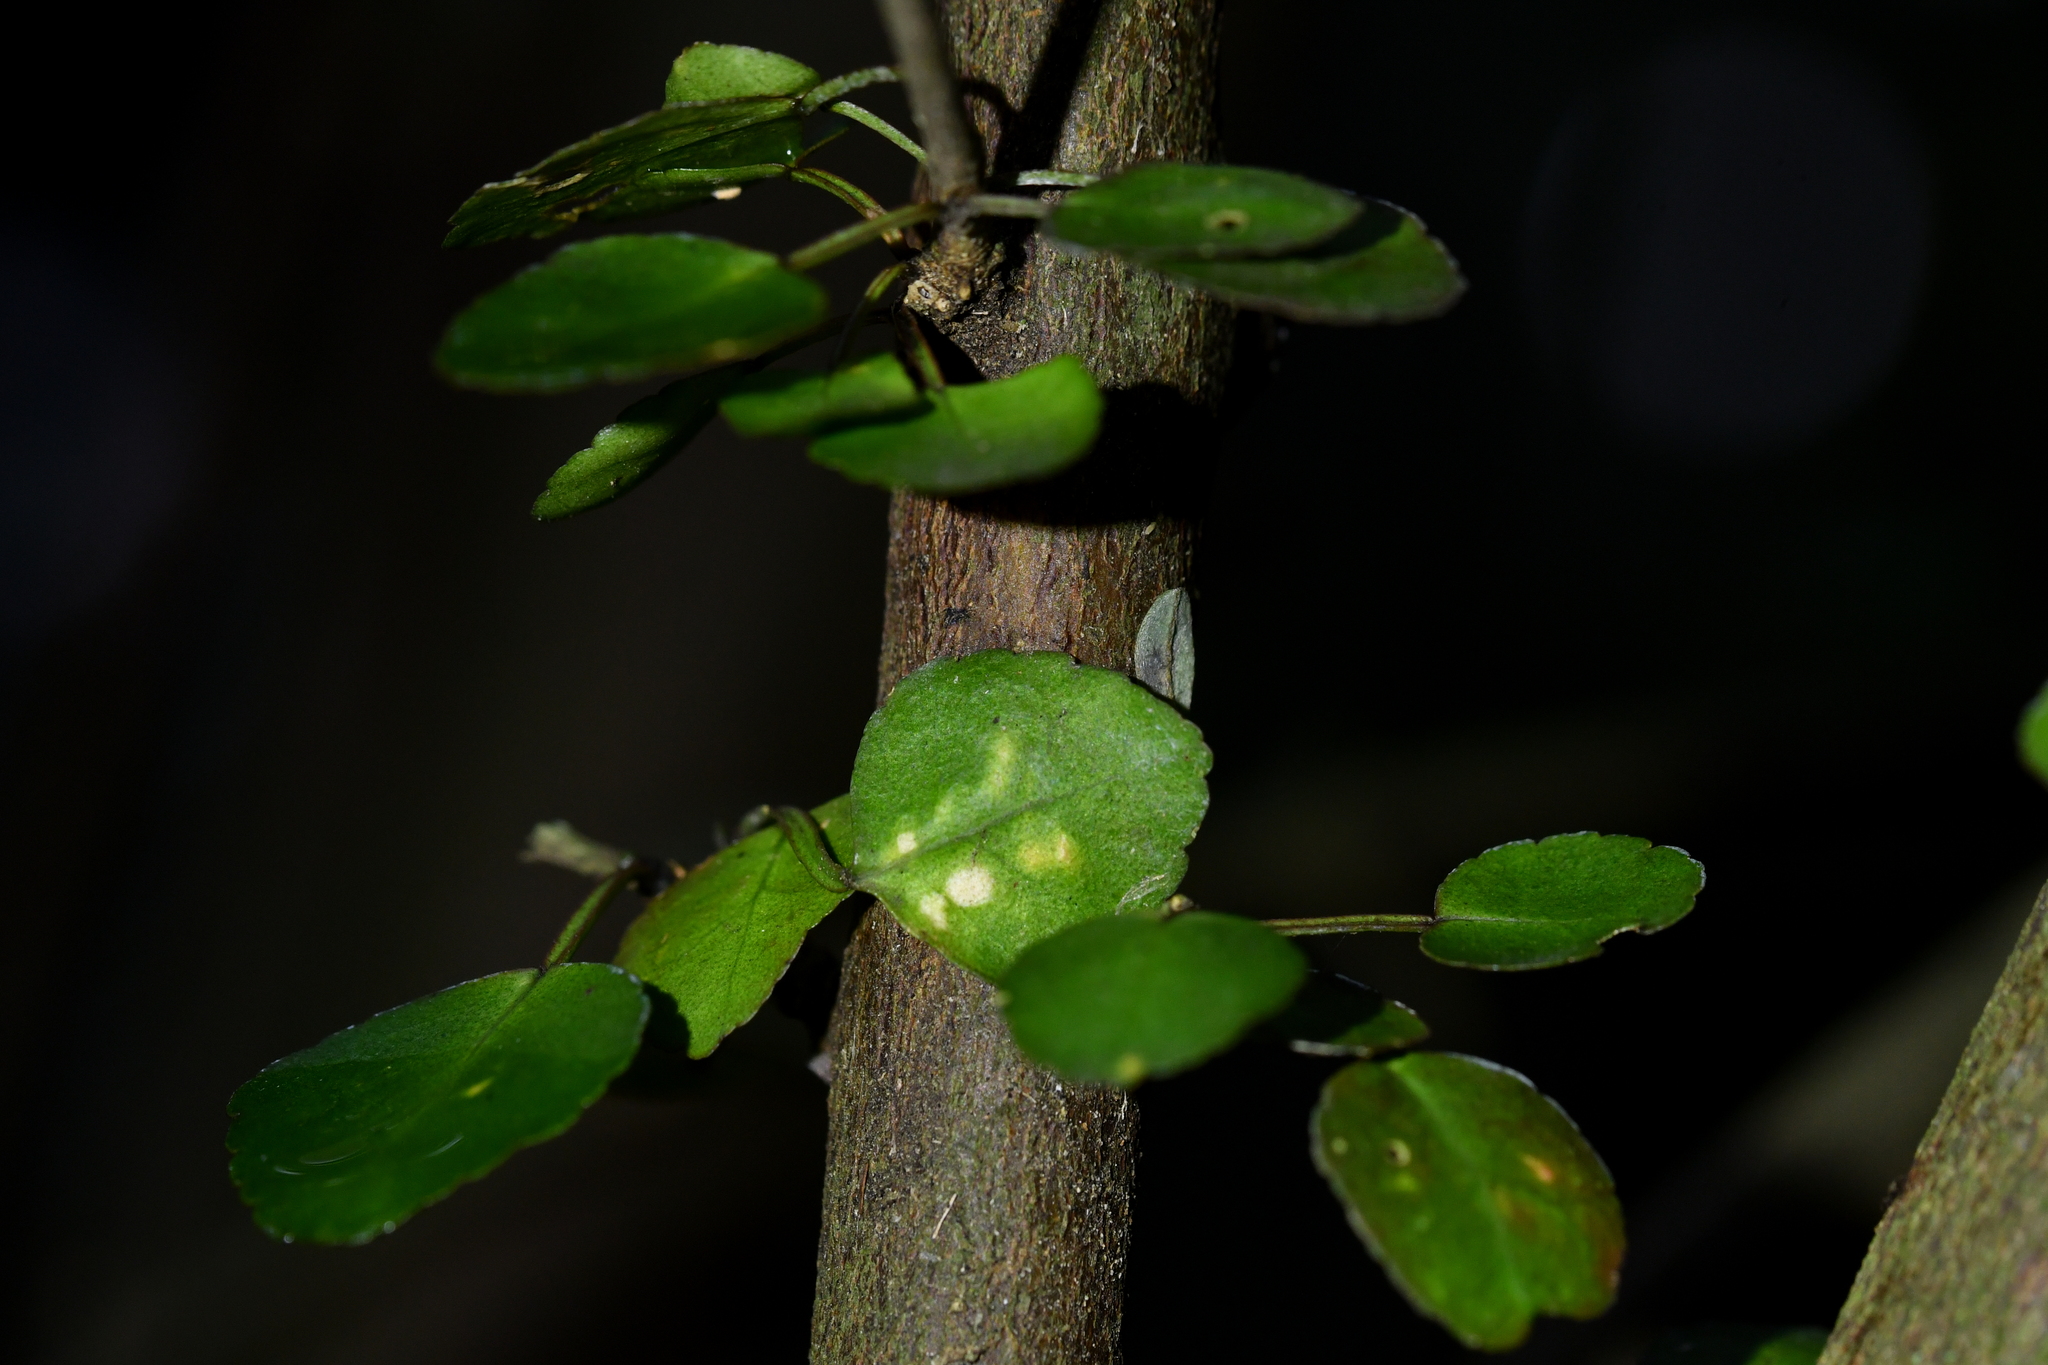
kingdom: Plantae
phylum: Tracheophyta
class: Magnoliopsida
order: Sapindales
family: Rutaceae
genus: Melicope
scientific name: Melicope simplex
